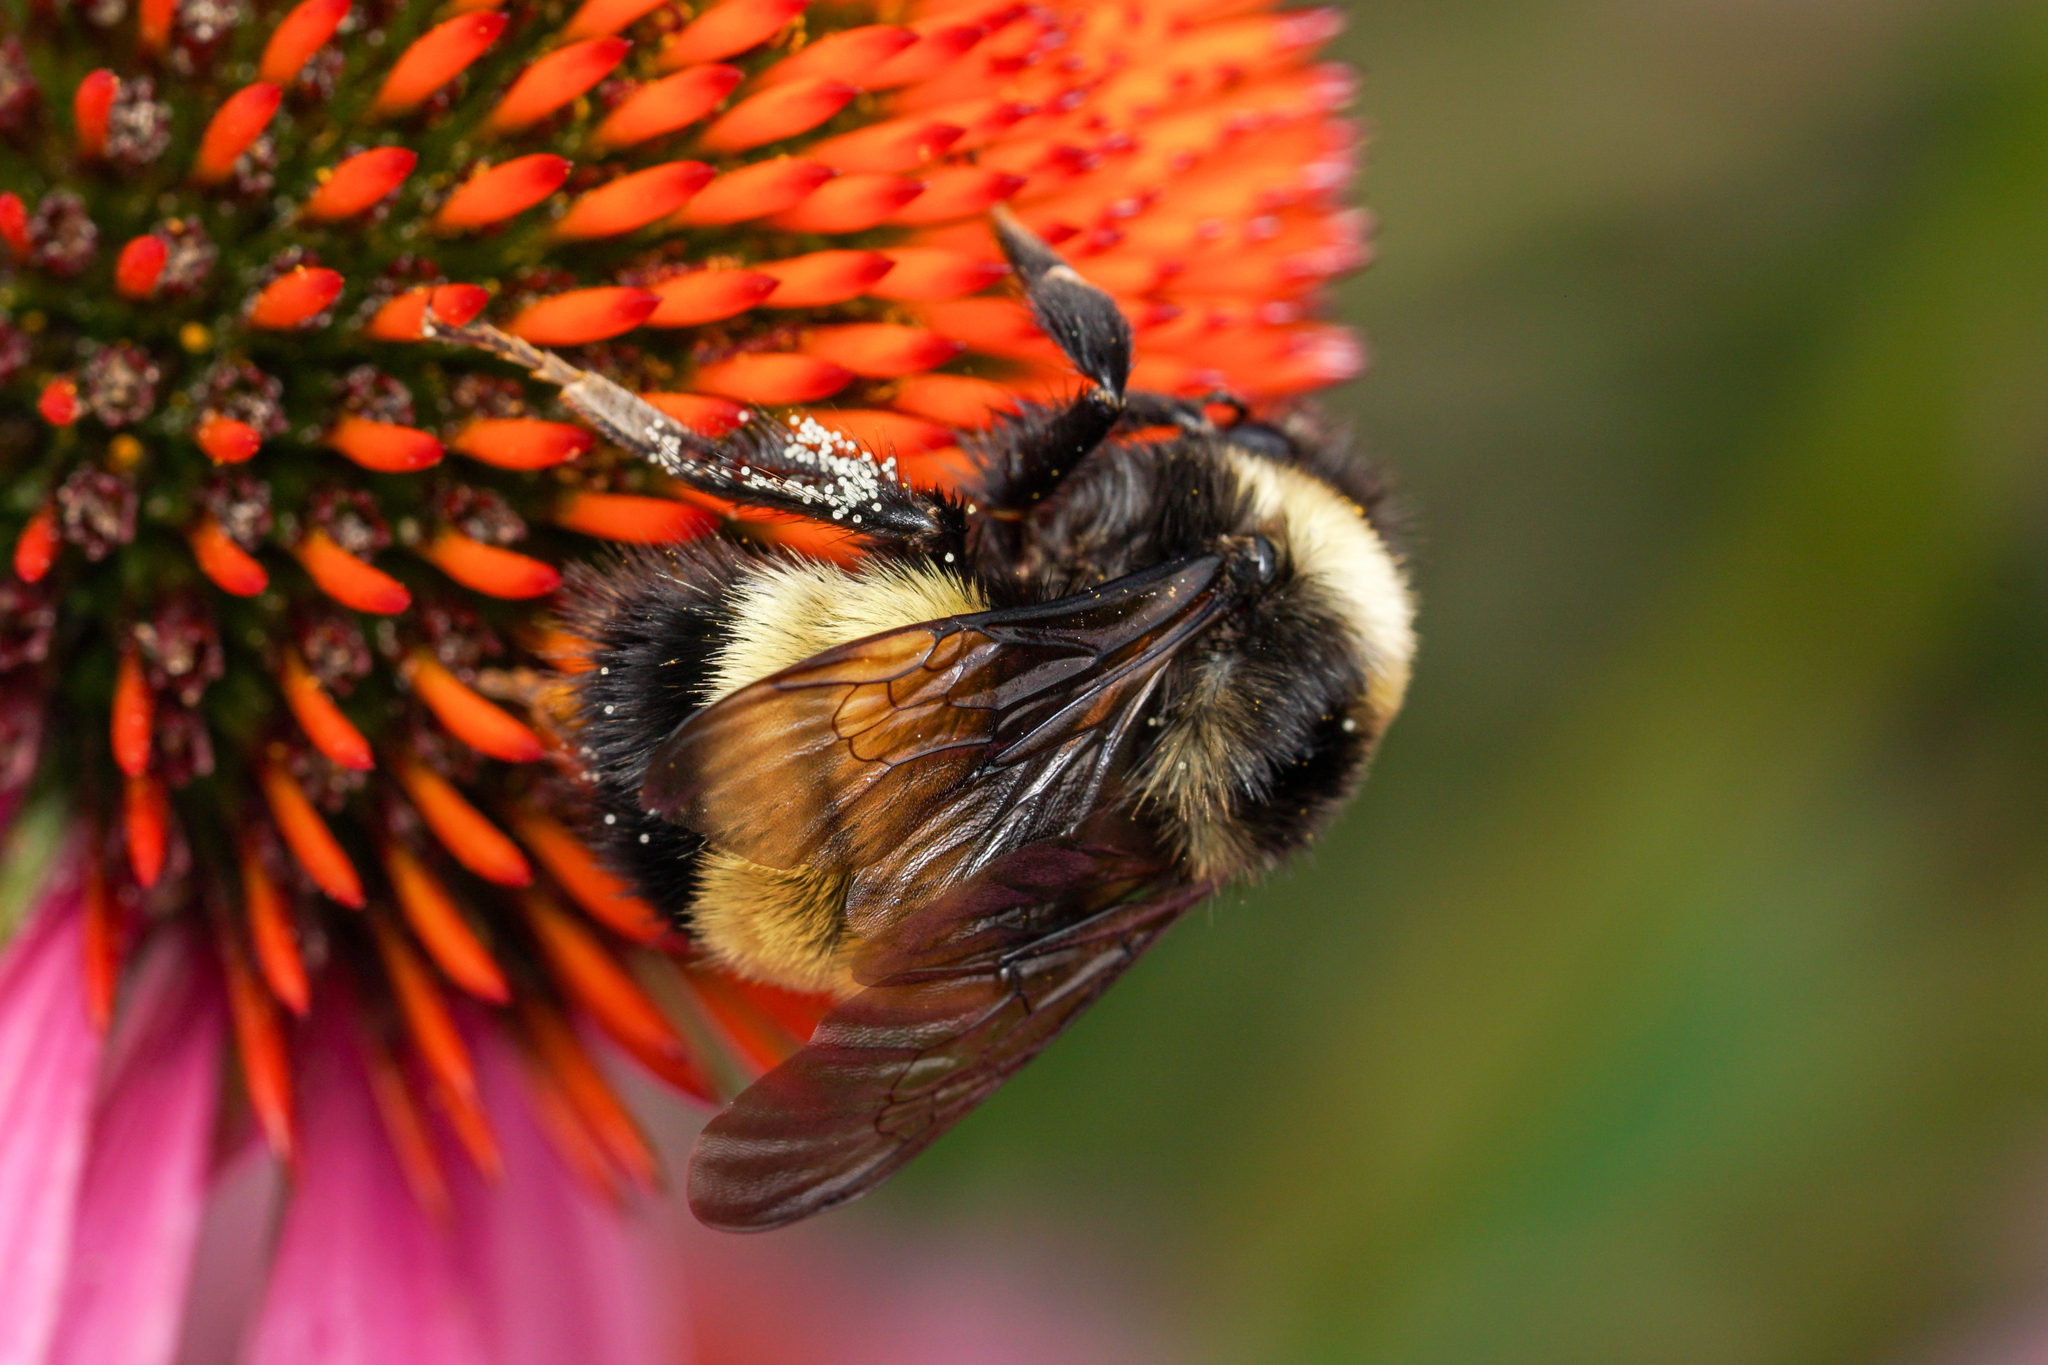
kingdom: Animalia
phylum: Arthropoda
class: Insecta
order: Hymenoptera
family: Apidae
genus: Bombus
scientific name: Bombus terricola
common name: Yellow-banded bumble bee
